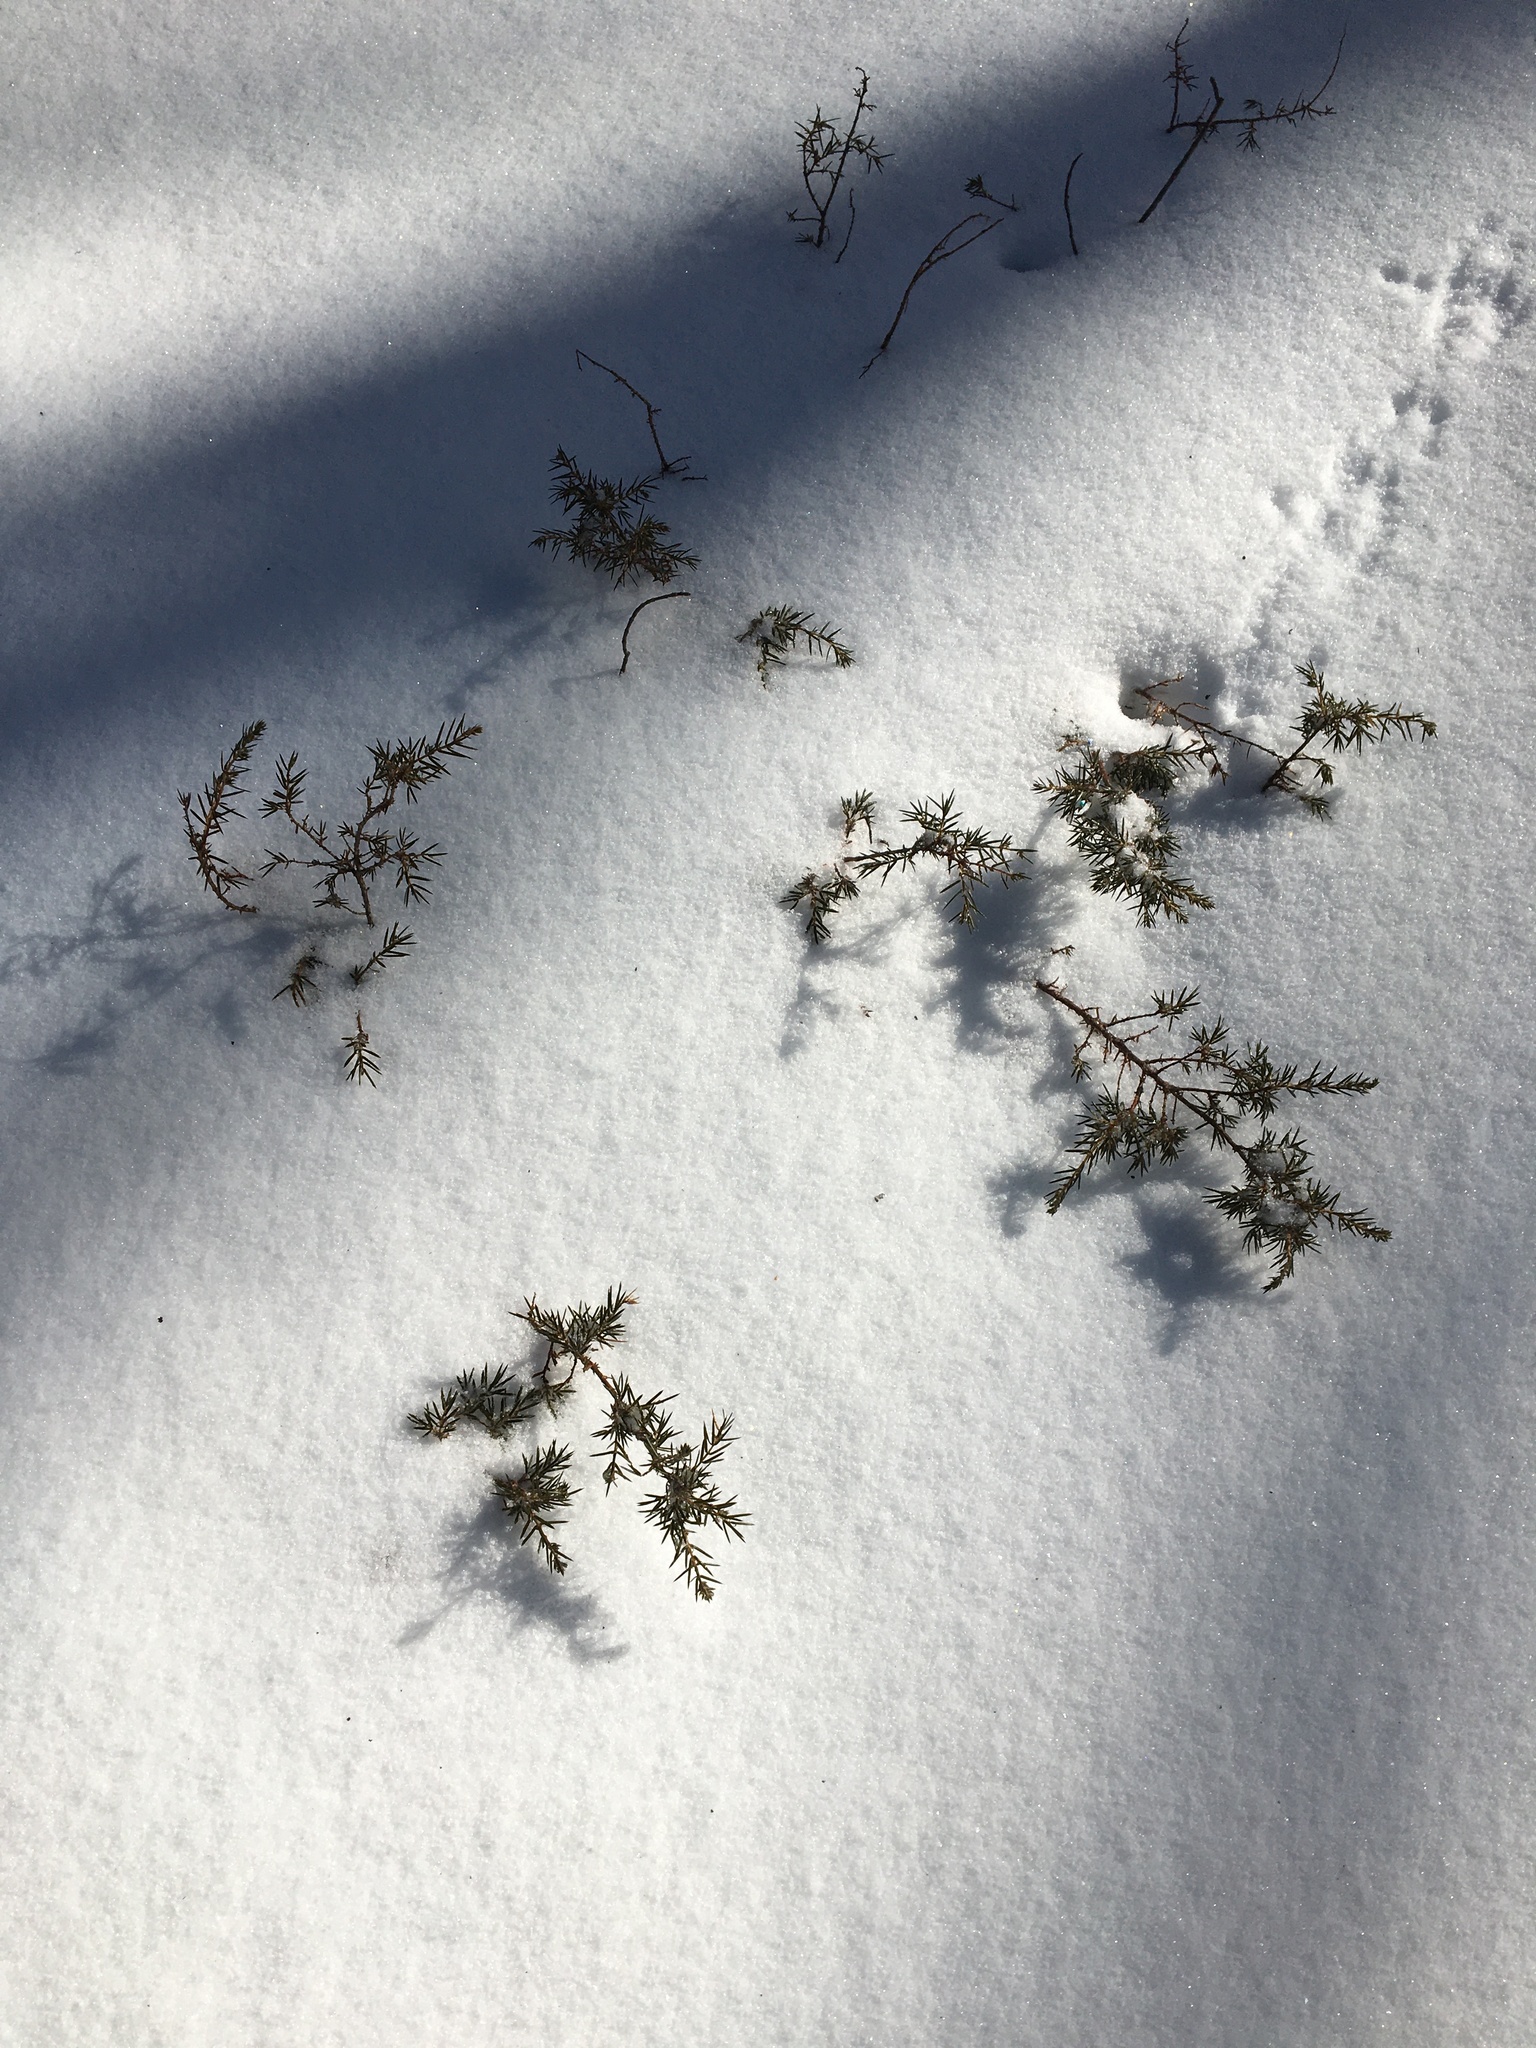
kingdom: Plantae
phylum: Tracheophyta
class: Pinopsida
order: Pinales
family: Cupressaceae
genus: Juniperus
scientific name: Juniperus communis
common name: Common juniper
